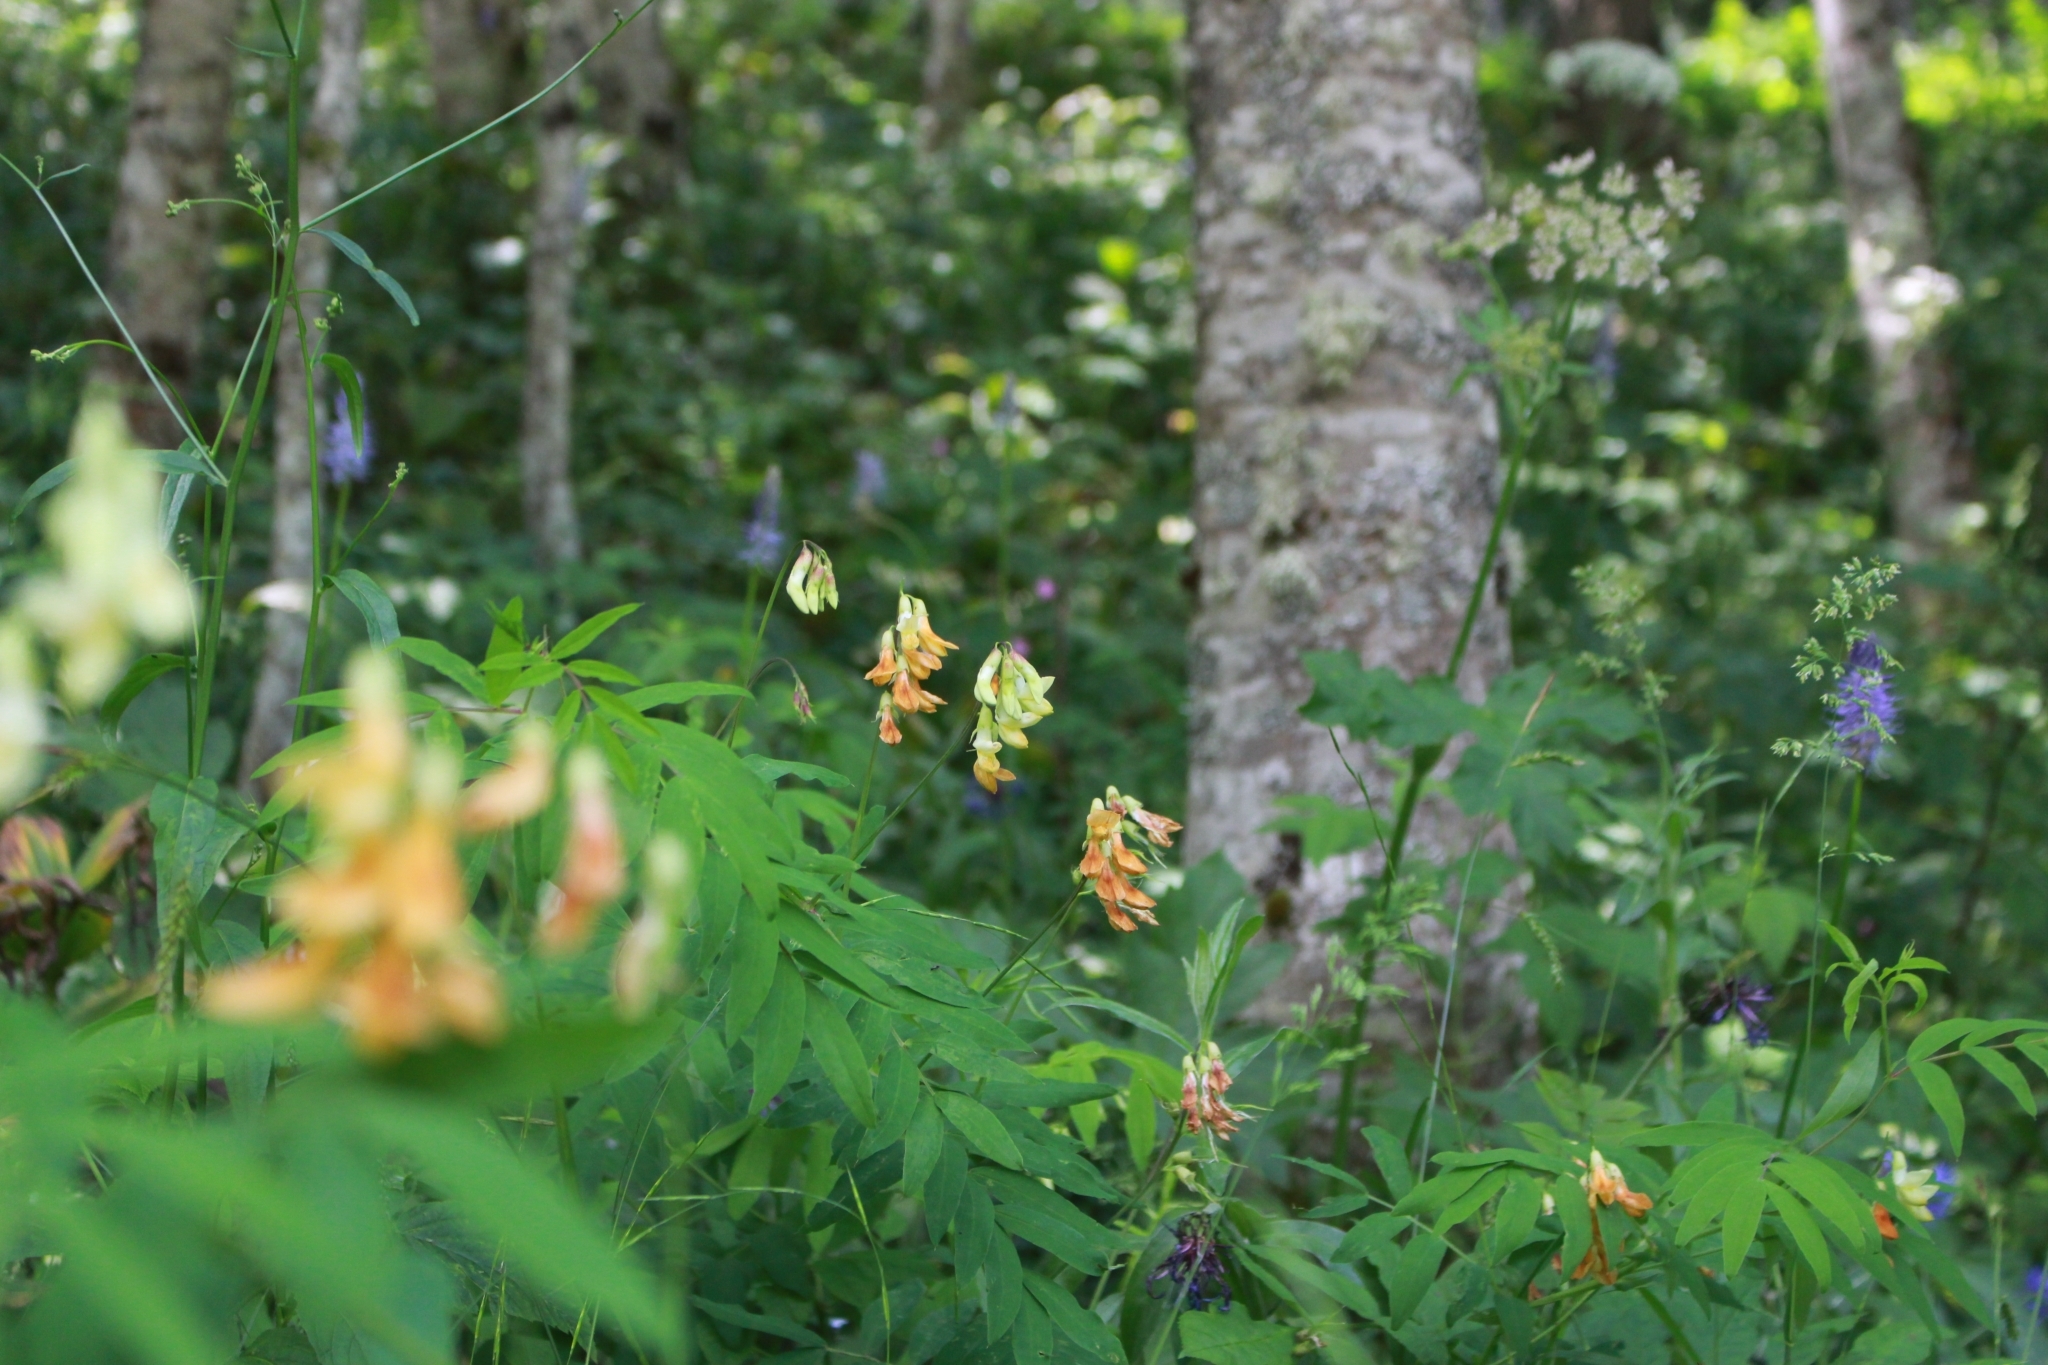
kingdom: Plantae
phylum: Tracheophyta
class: Magnoliopsida
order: Fabales
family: Fabaceae
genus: Lathyrus
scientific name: Lathyrus laevigatus
